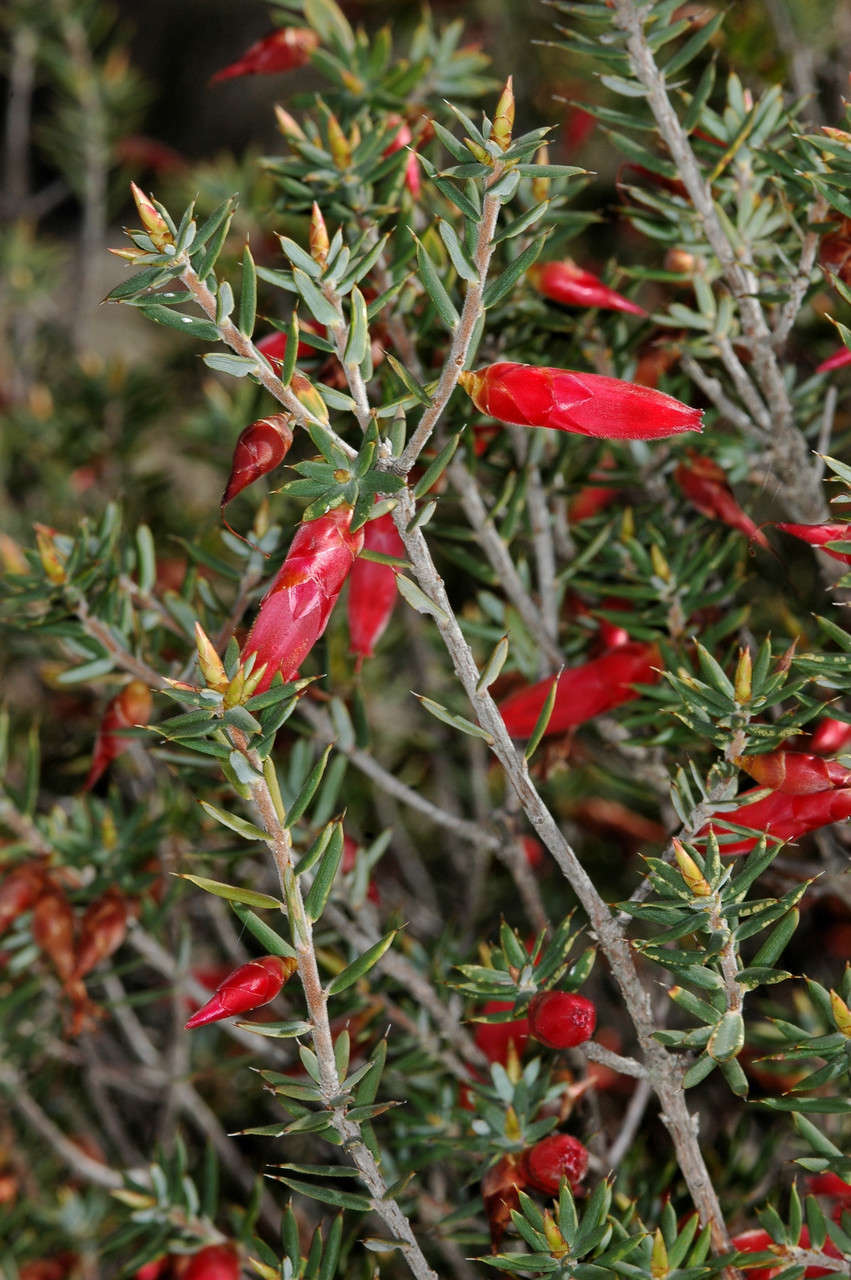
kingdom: Plantae
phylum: Tracheophyta
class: Magnoliopsida
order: Ericales
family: Ericaceae
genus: Stenanthera
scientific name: Stenanthera conostephioides
